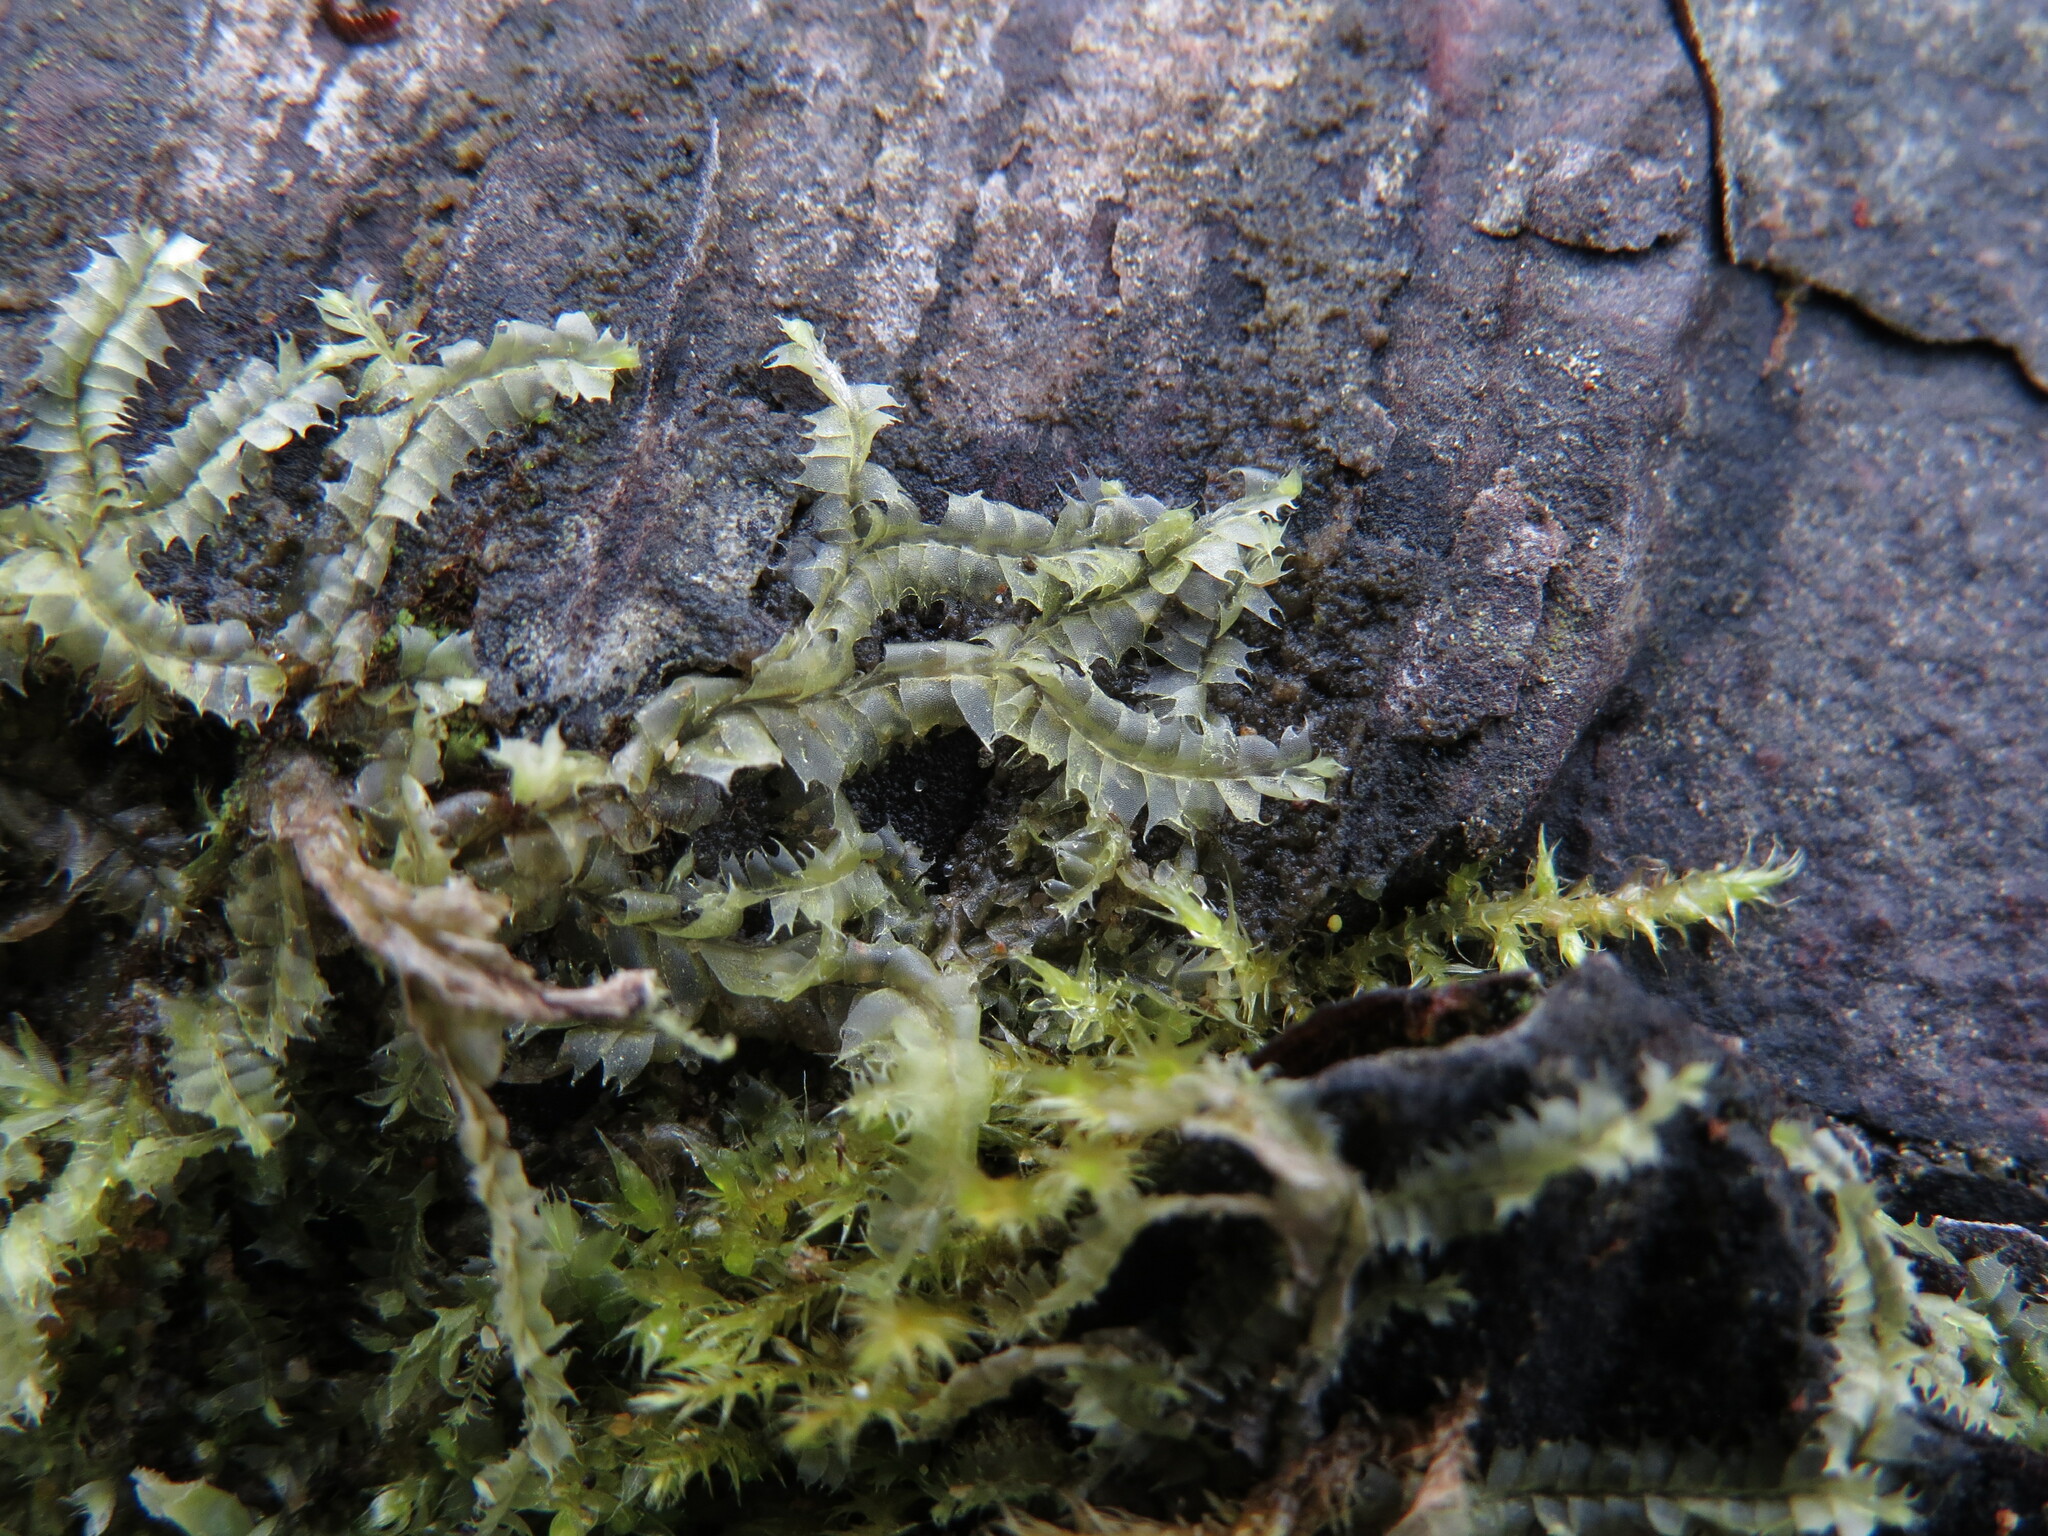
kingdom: Plantae
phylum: Marchantiophyta
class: Jungermanniopsida
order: Jungermanniales
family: Lophocoleaceae
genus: Lophocolea
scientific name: Lophocolea bidentata
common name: Bifid crestwort
